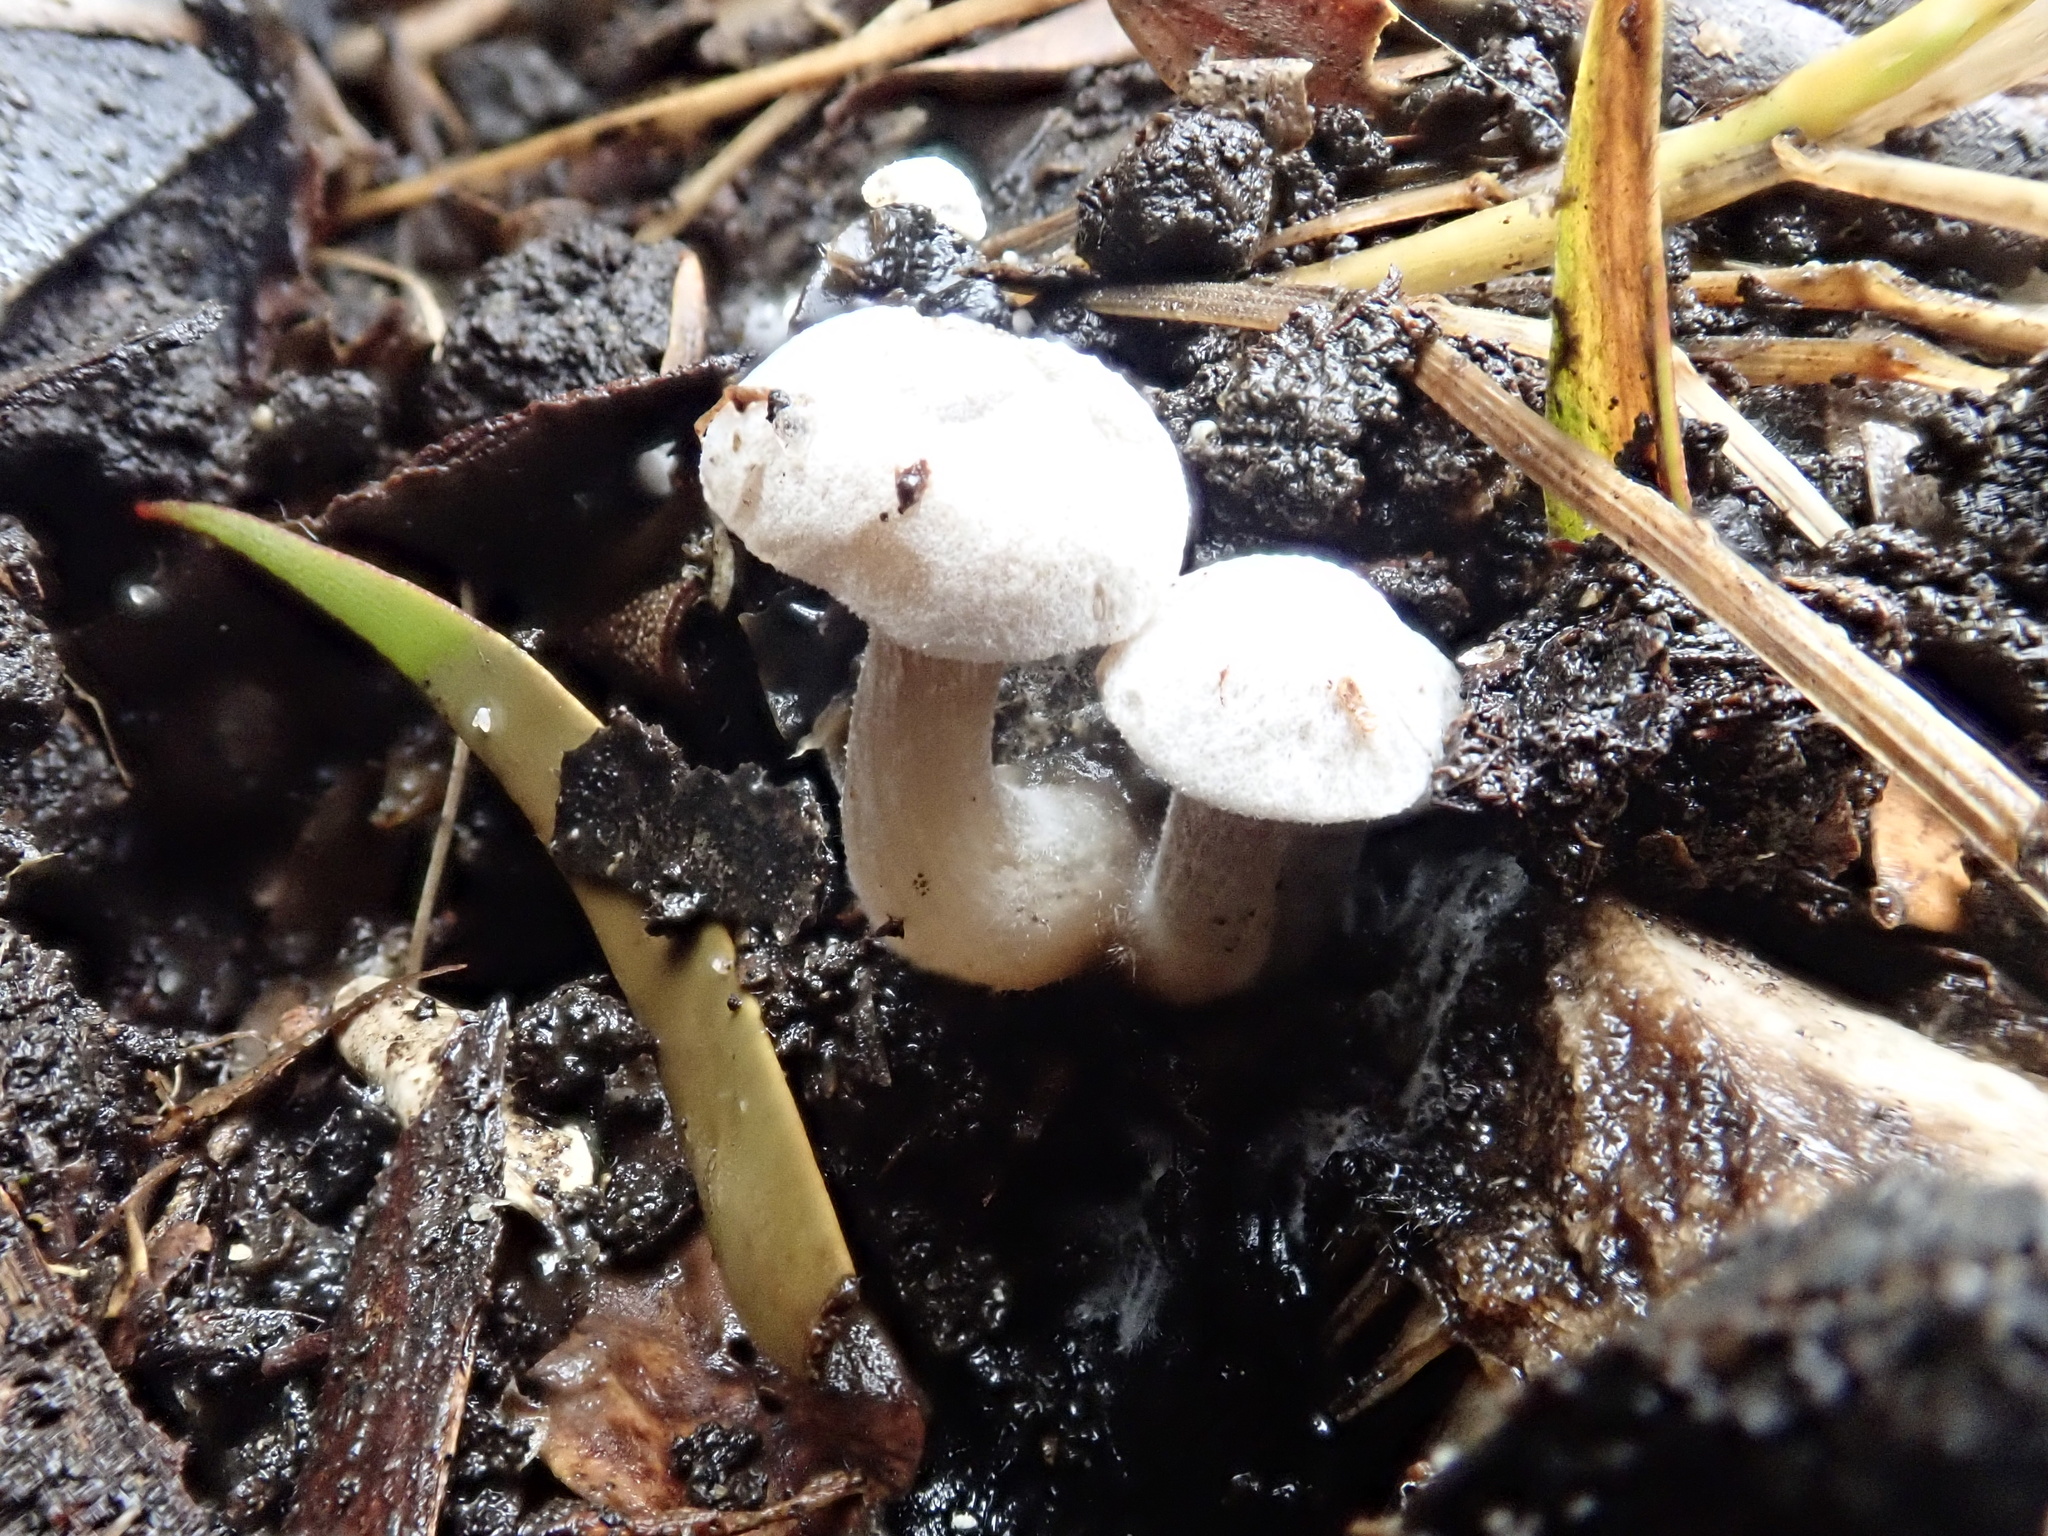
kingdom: Fungi
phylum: Basidiomycota
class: Agaricomycetes
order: Agaricales
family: Lyophyllaceae
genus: Asterophora
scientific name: Asterophora mirabilis
